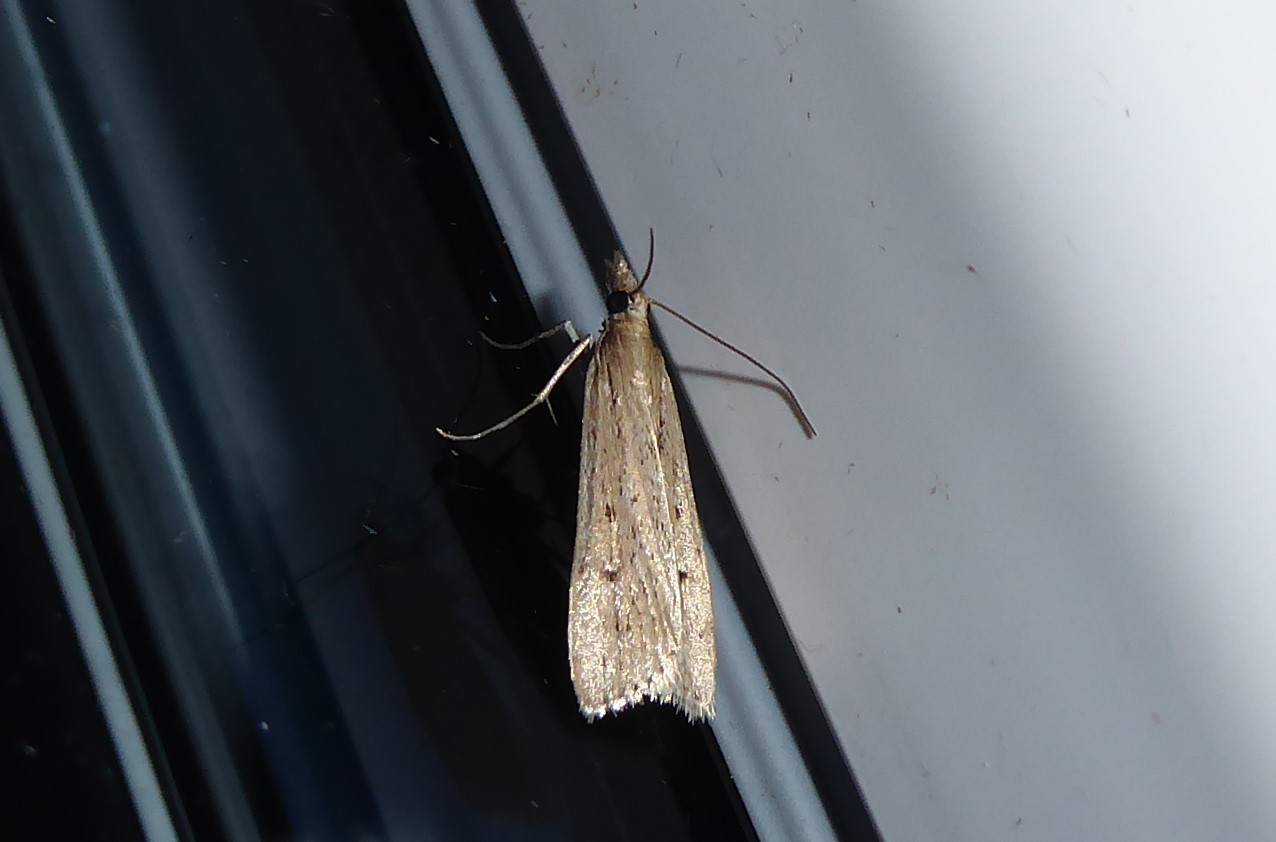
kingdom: Animalia
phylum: Arthropoda
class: Insecta
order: Lepidoptera
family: Crambidae
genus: Eudonia
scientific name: Eudonia sabulosella
